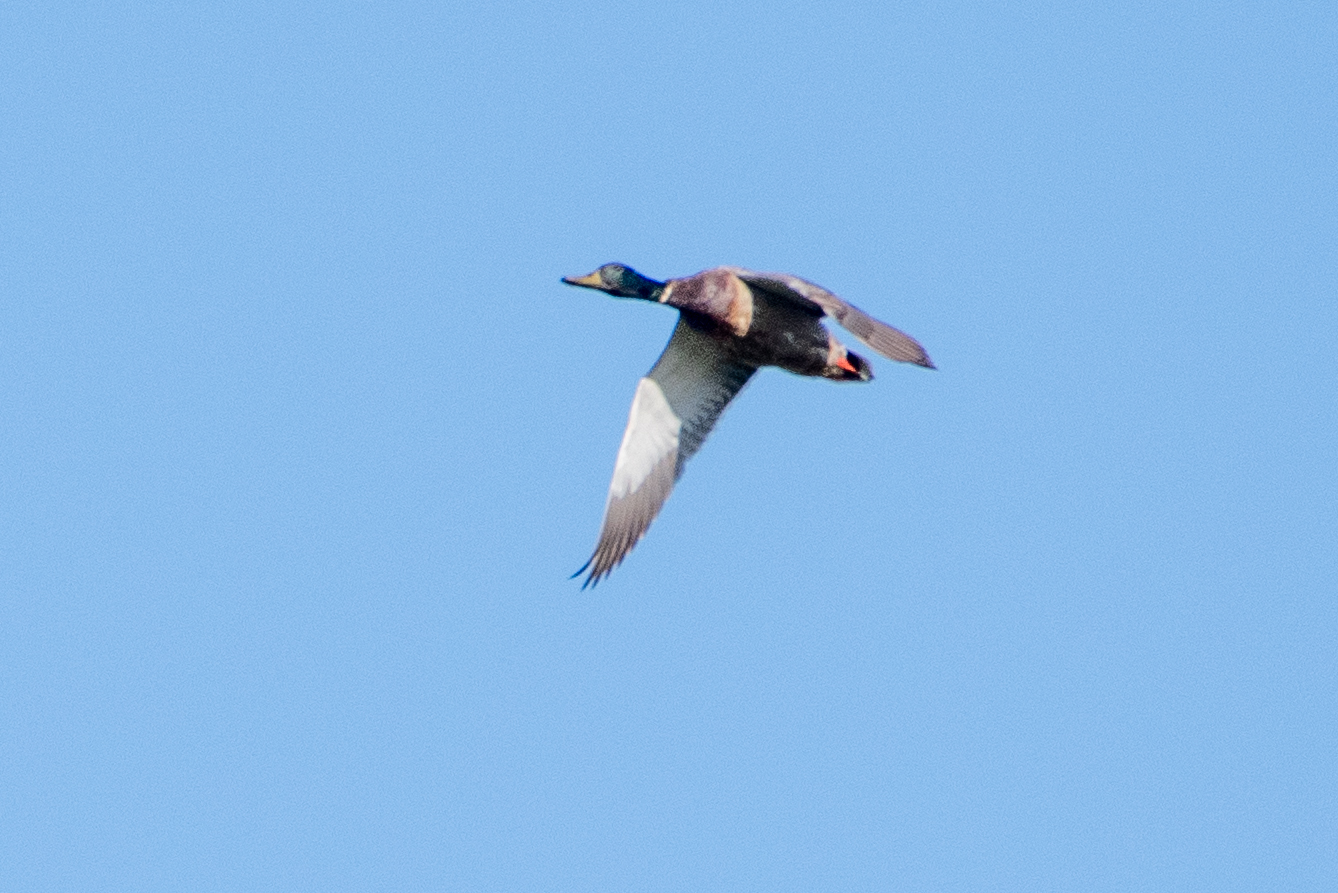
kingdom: Animalia
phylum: Chordata
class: Aves
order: Anseriformes
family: Anatidae
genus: Anas
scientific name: Anas platyrhynchos
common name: Mallard
